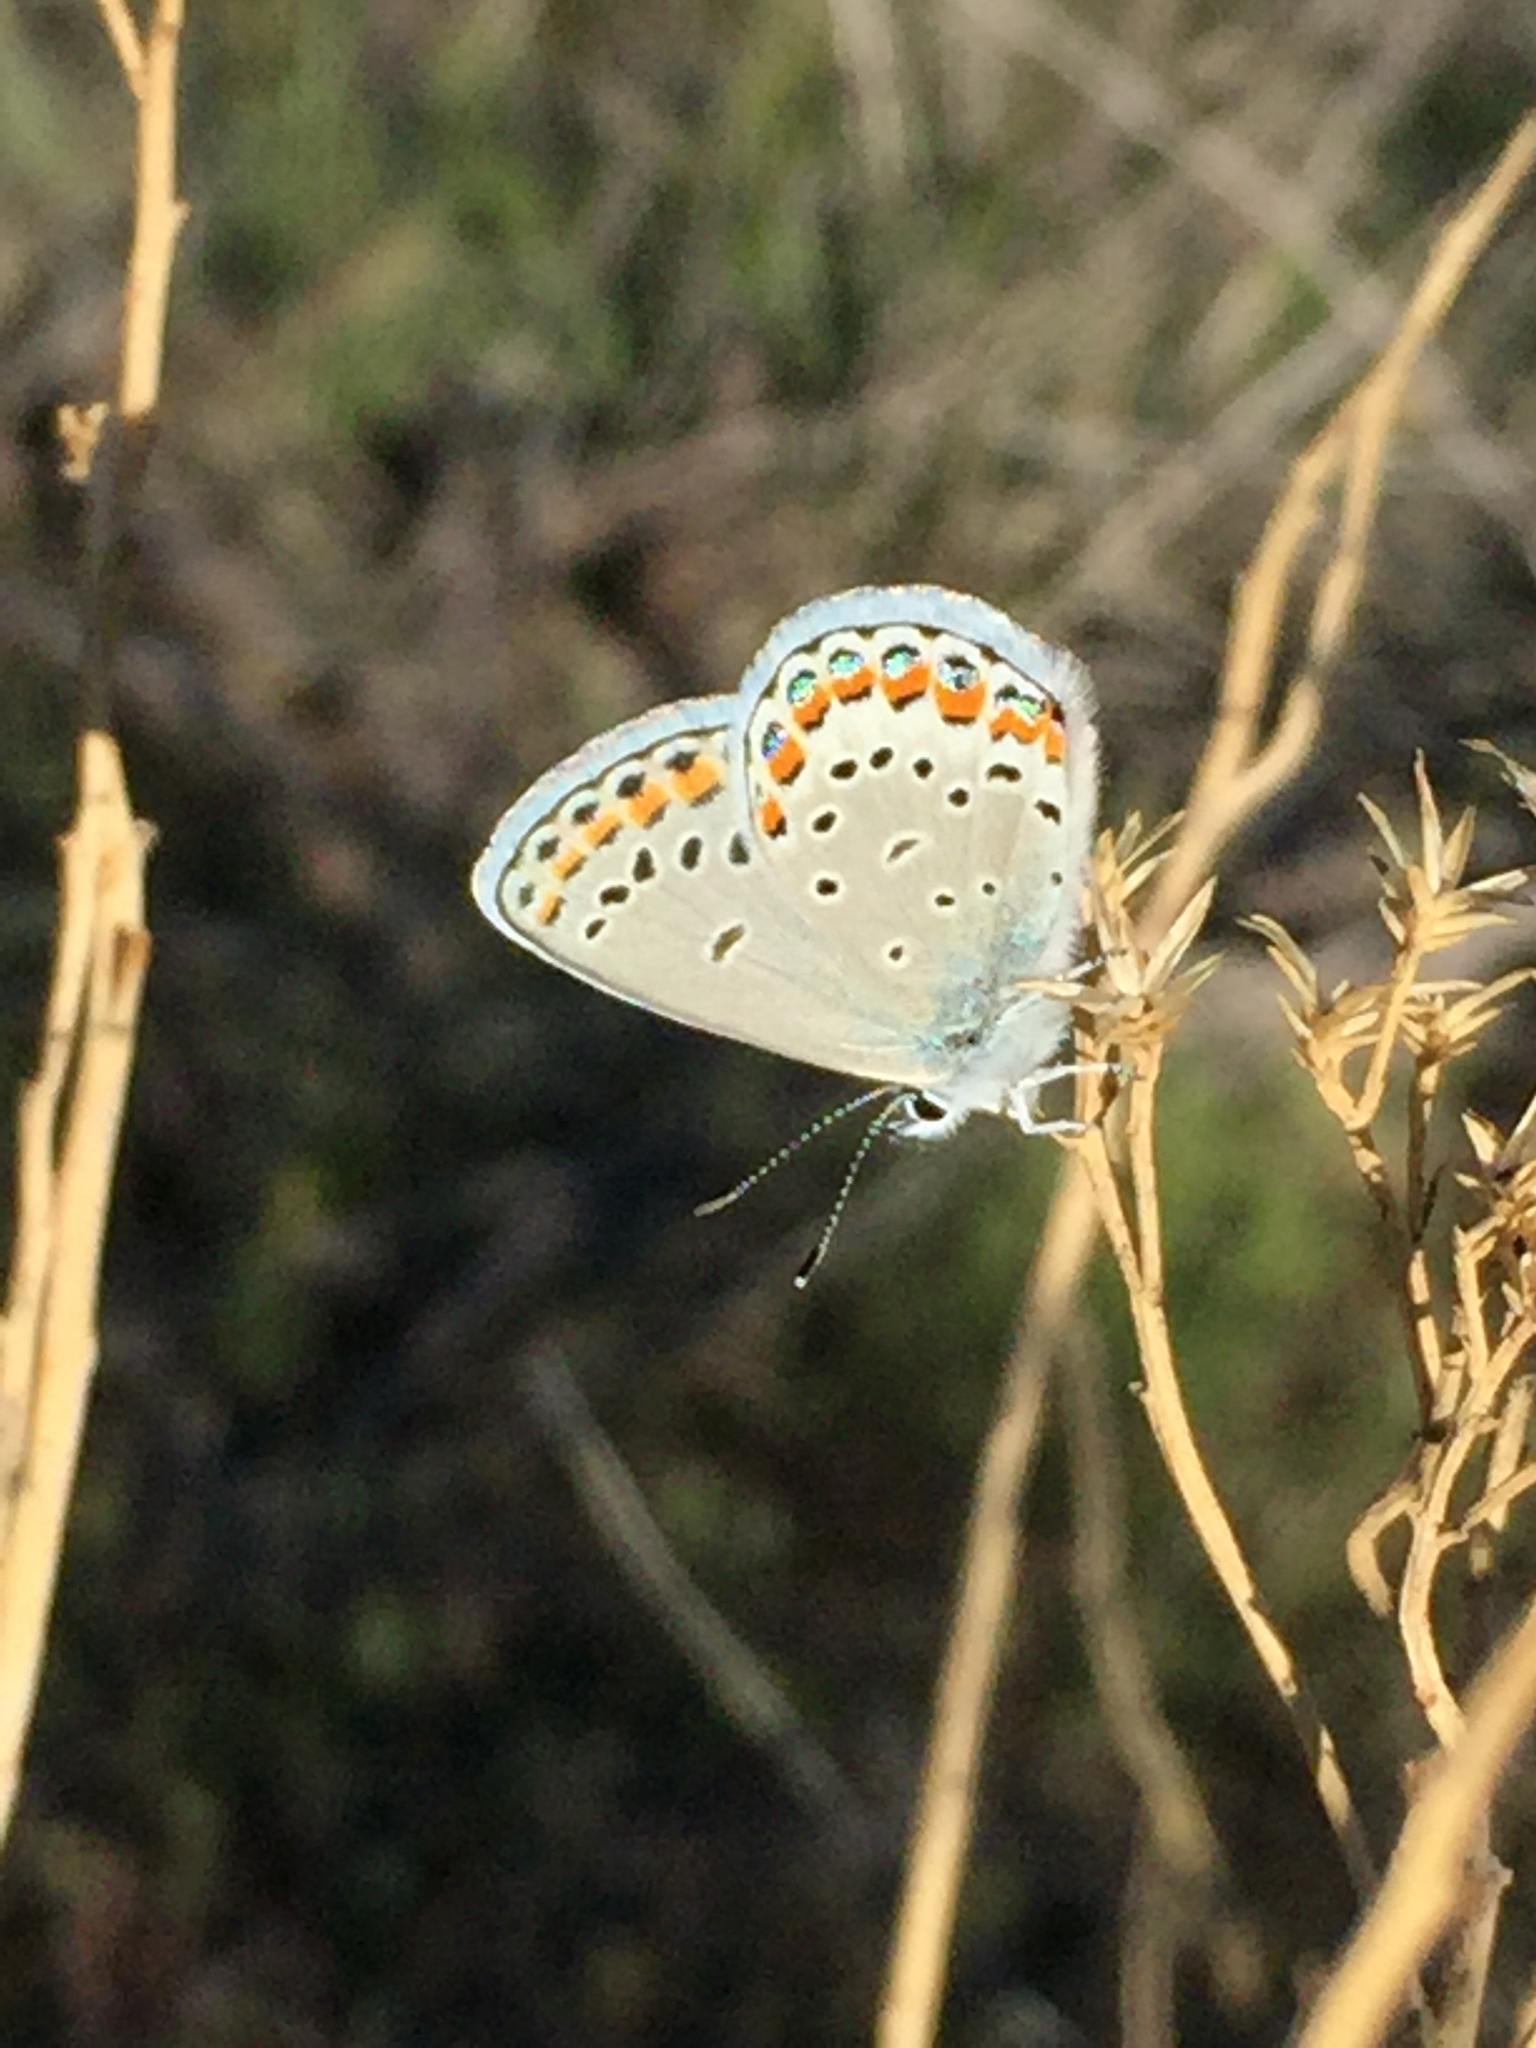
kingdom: Animalia
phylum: Arthropoda
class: Insecta
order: Lepidoptera
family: Lycaenidae
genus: Lycaeides
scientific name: Lycaeides melissa
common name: Melissa blue
